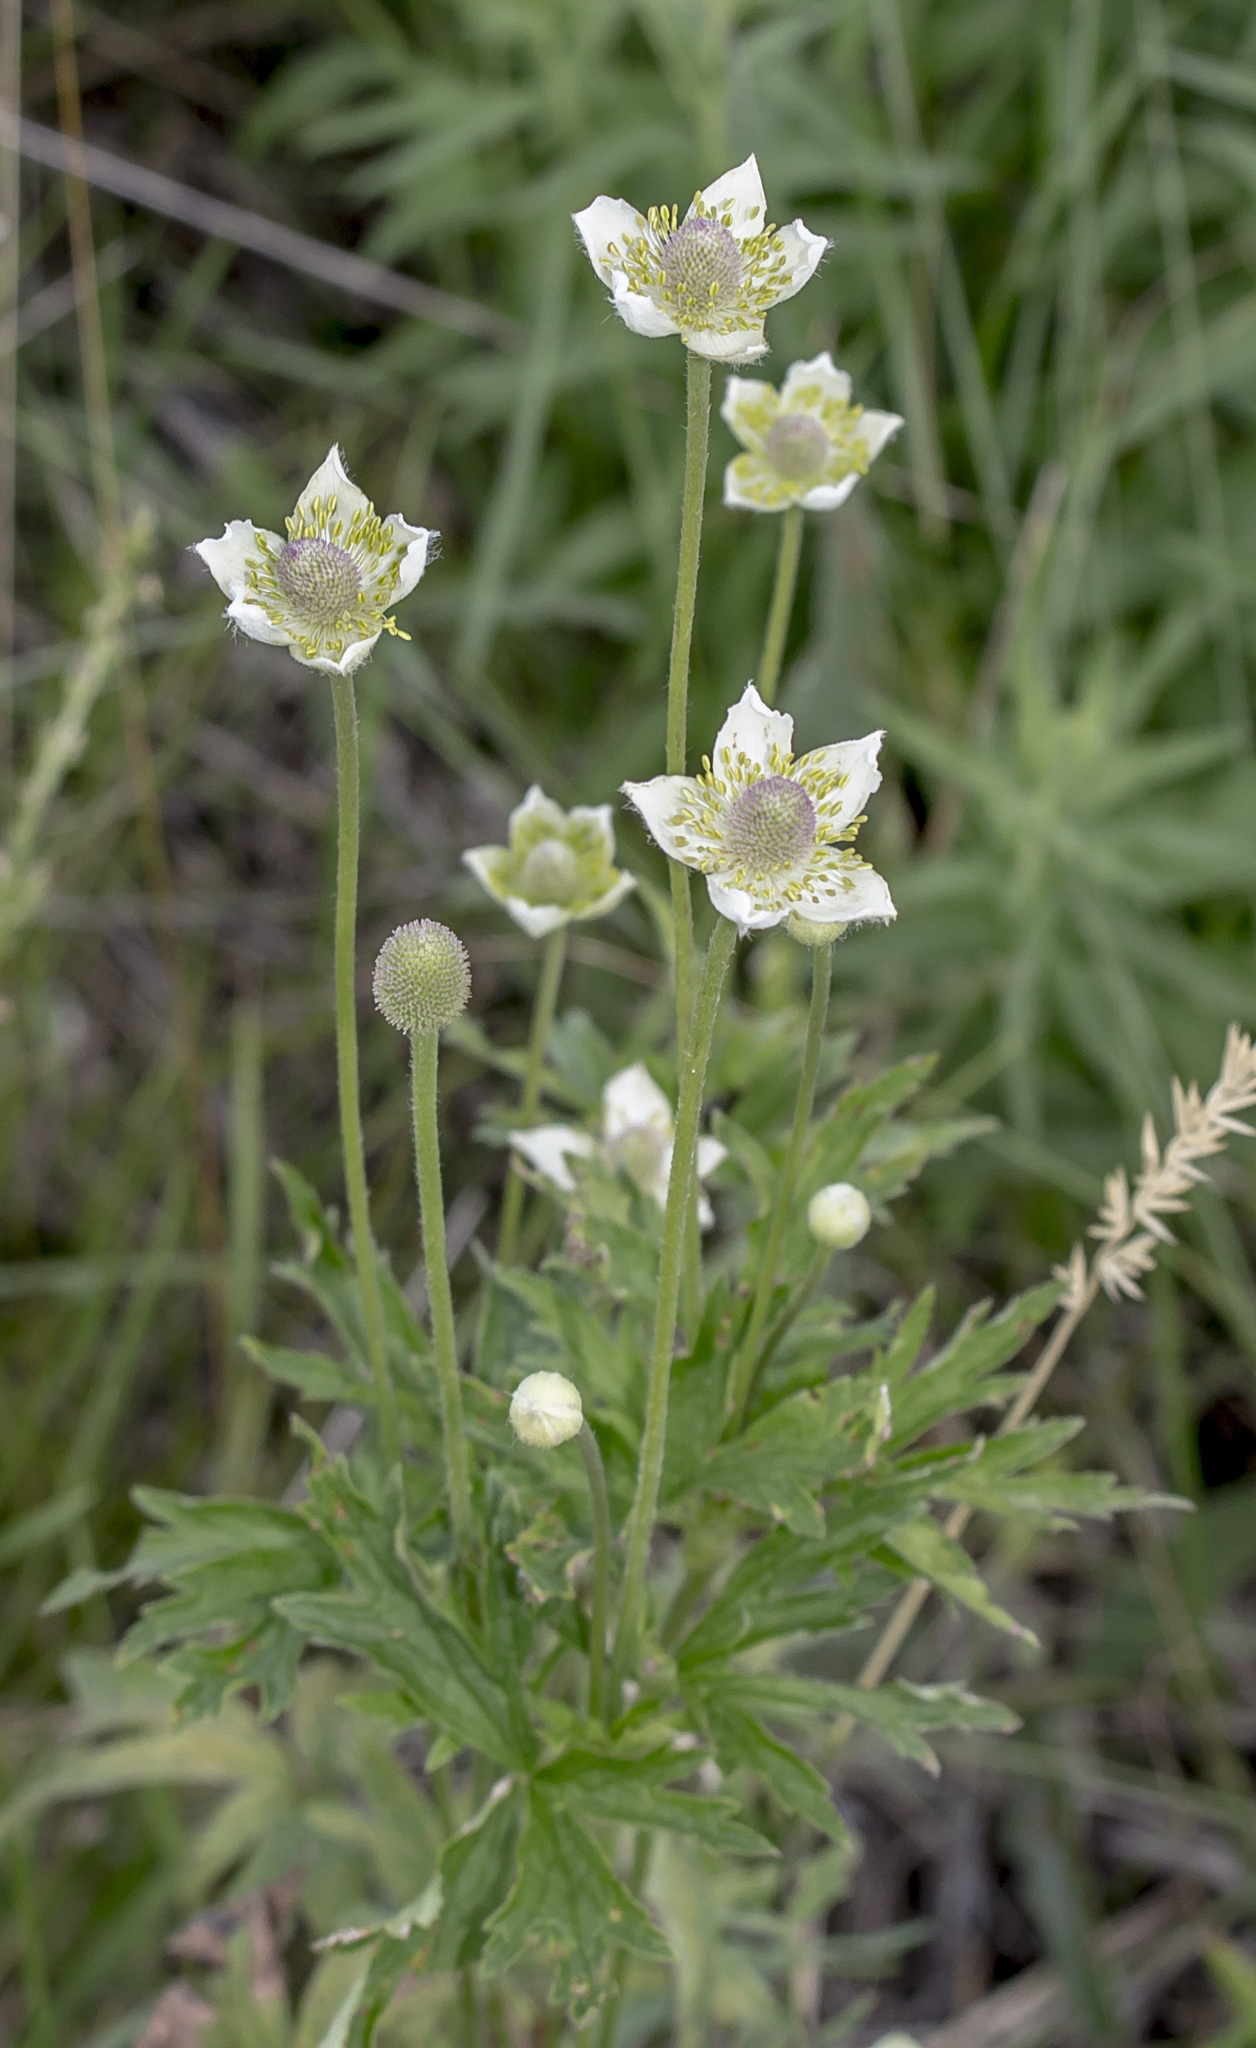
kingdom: Plantae
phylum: Tracheophyta
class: Magnoliopsida
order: Ranunculales
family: Ranunculaceae
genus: Anemone
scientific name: Anemone cylindrica
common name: Candle anemone
